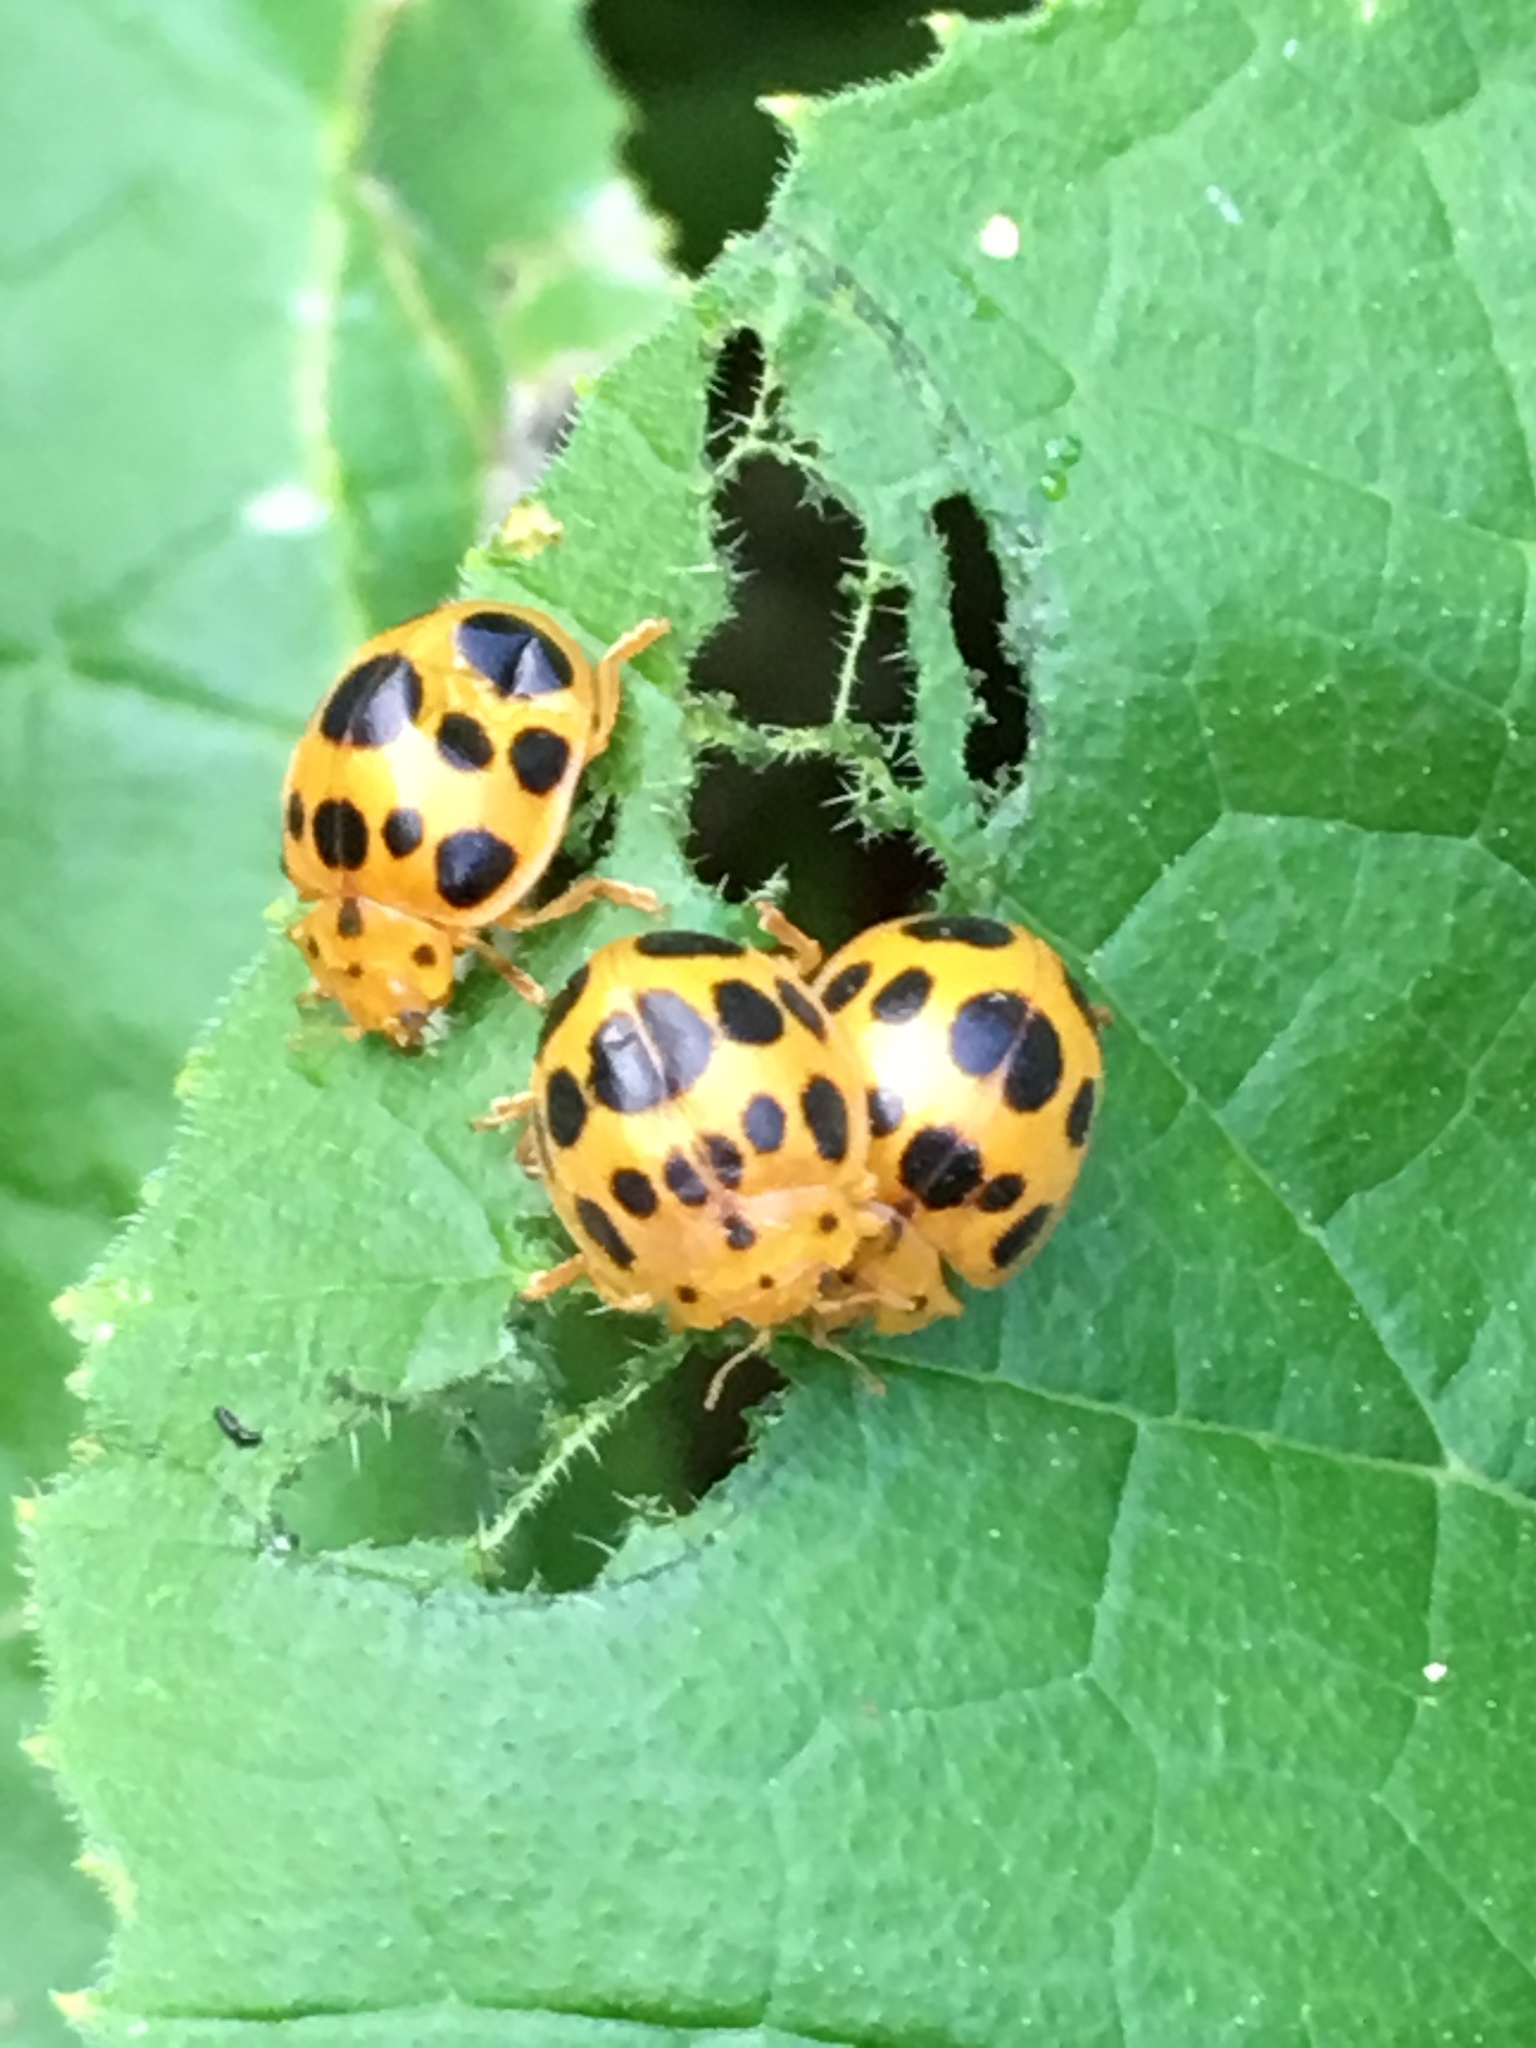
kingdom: Animalia
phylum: Arthropoda
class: Insecta
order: Coleoptera
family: Coccinellidae
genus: Epilachna
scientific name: Epilachna borealis
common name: Squash beetle
